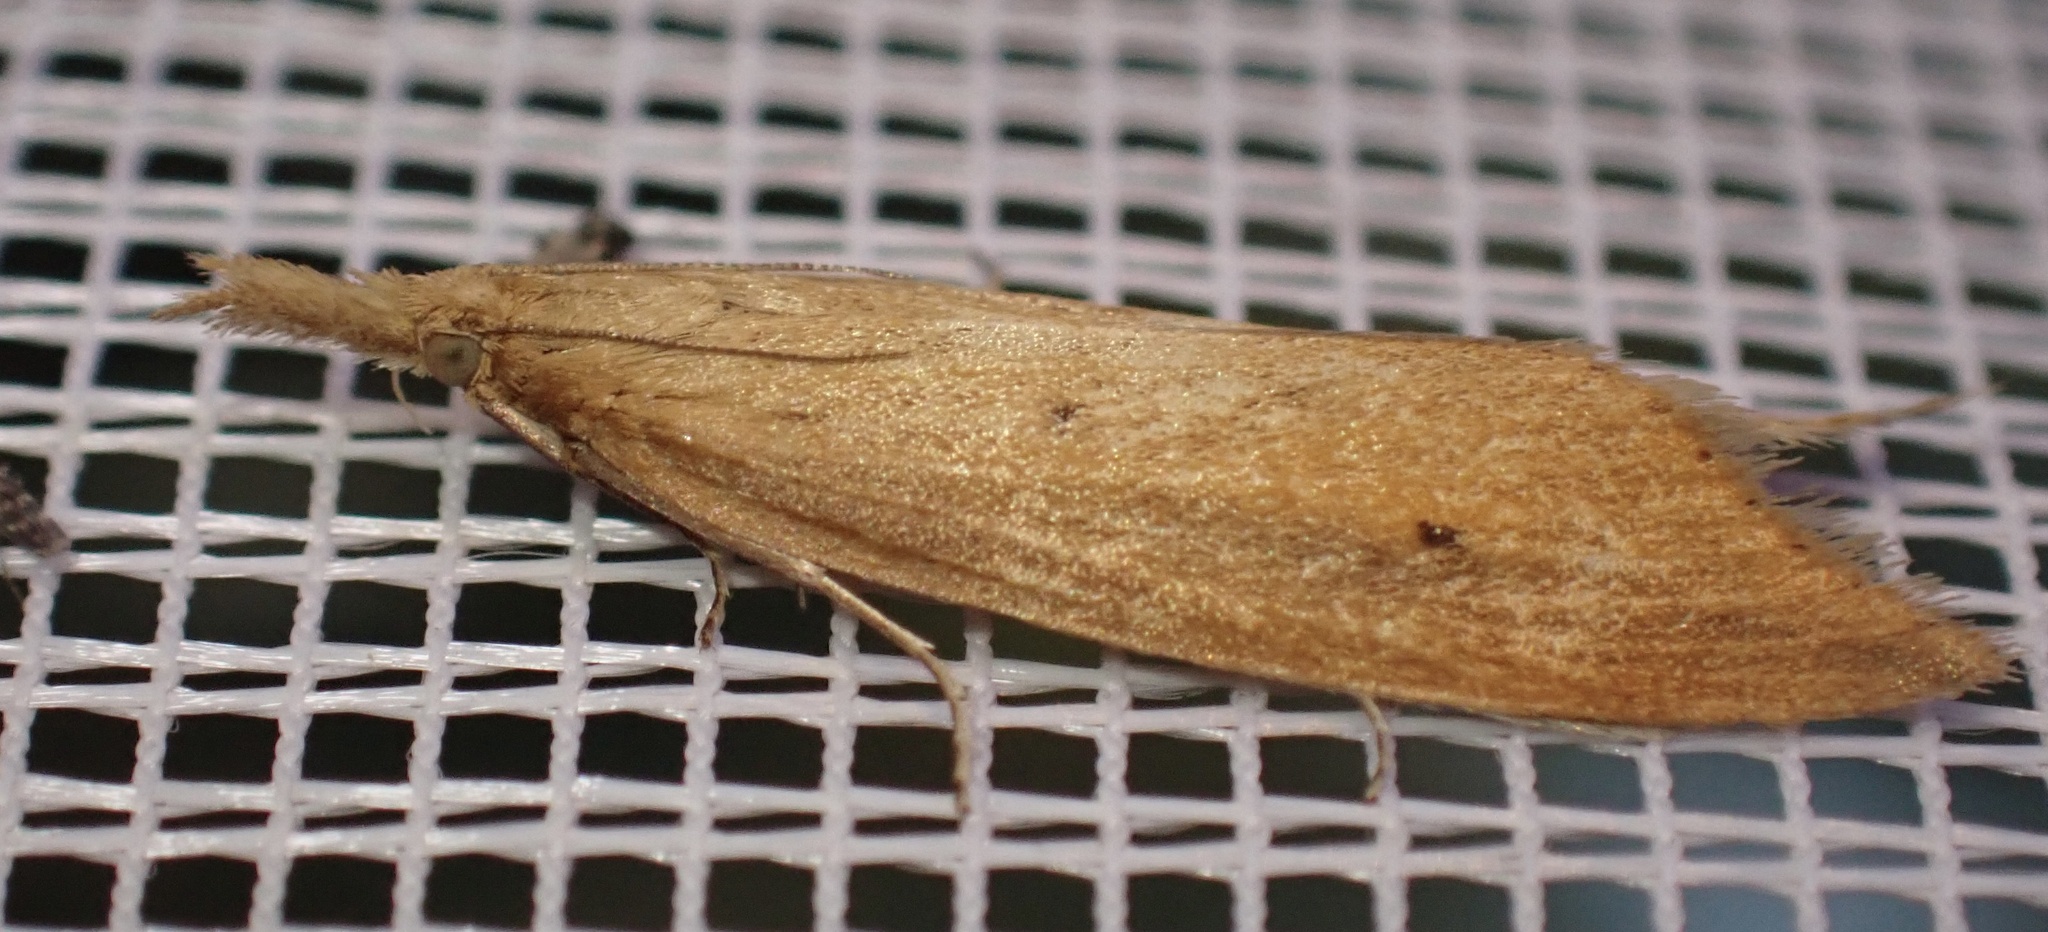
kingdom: Animalia
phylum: Arthropoda
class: Insecta
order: Lepidoptera
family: Crambidae
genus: Donacaula
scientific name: Donacaula forficella
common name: Pale water-veneer
